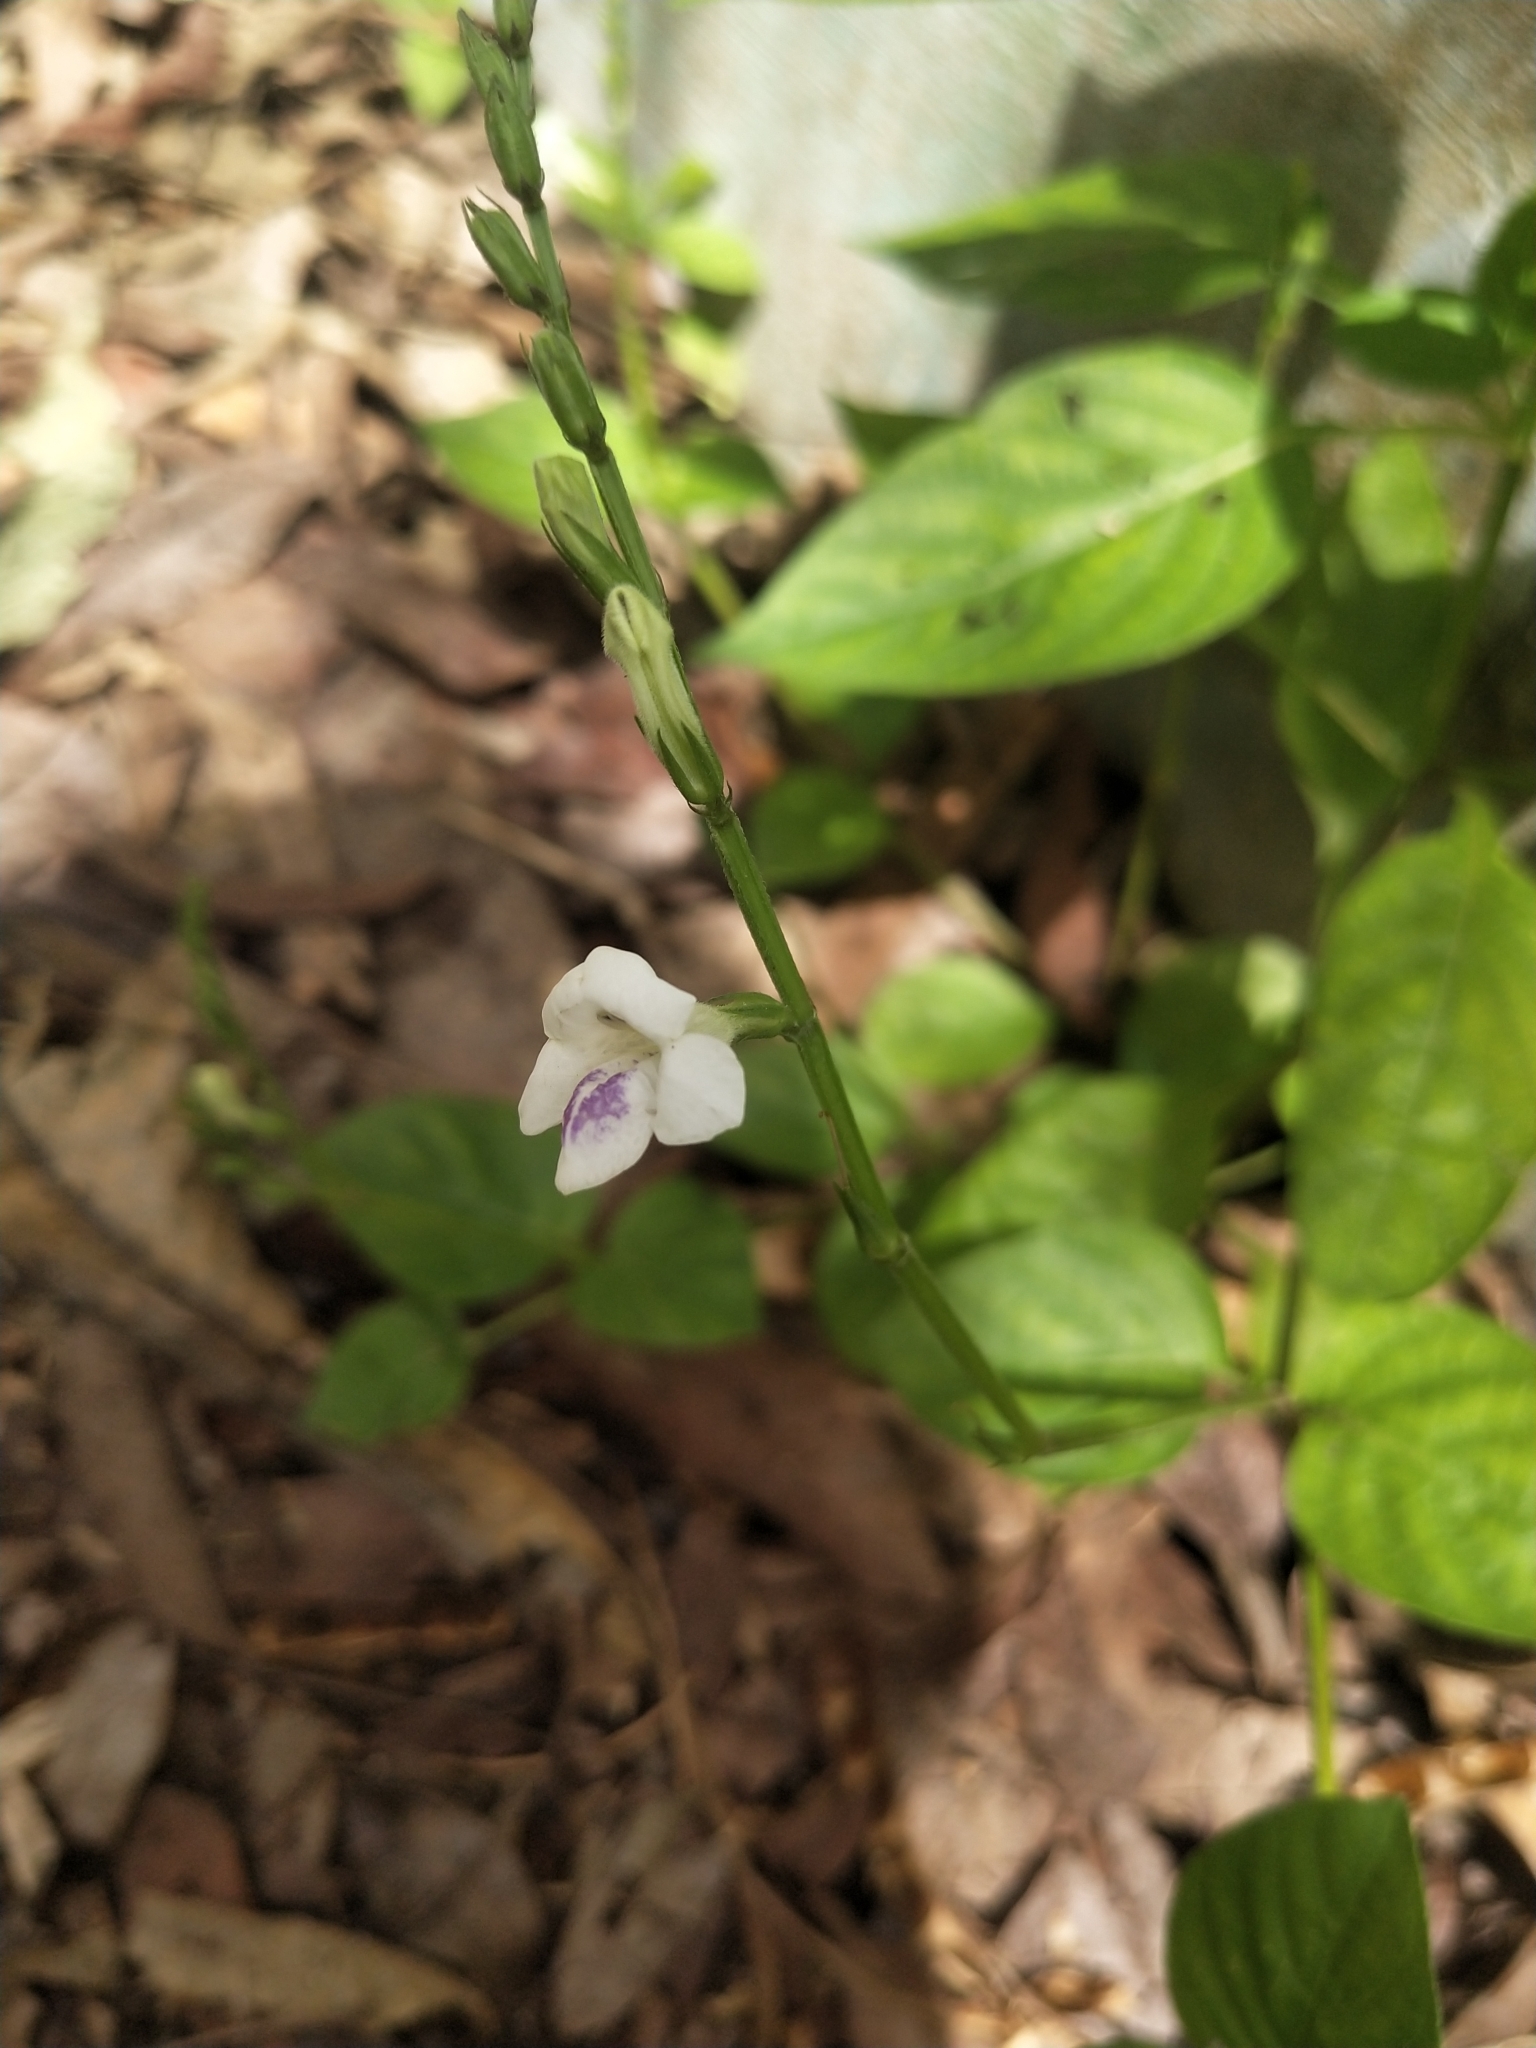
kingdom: Plantae
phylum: Tracheophyta
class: Magnoliopsida
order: Lamiales
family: Acanthaceae
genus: Asystasia
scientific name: Asystasia intrusa
